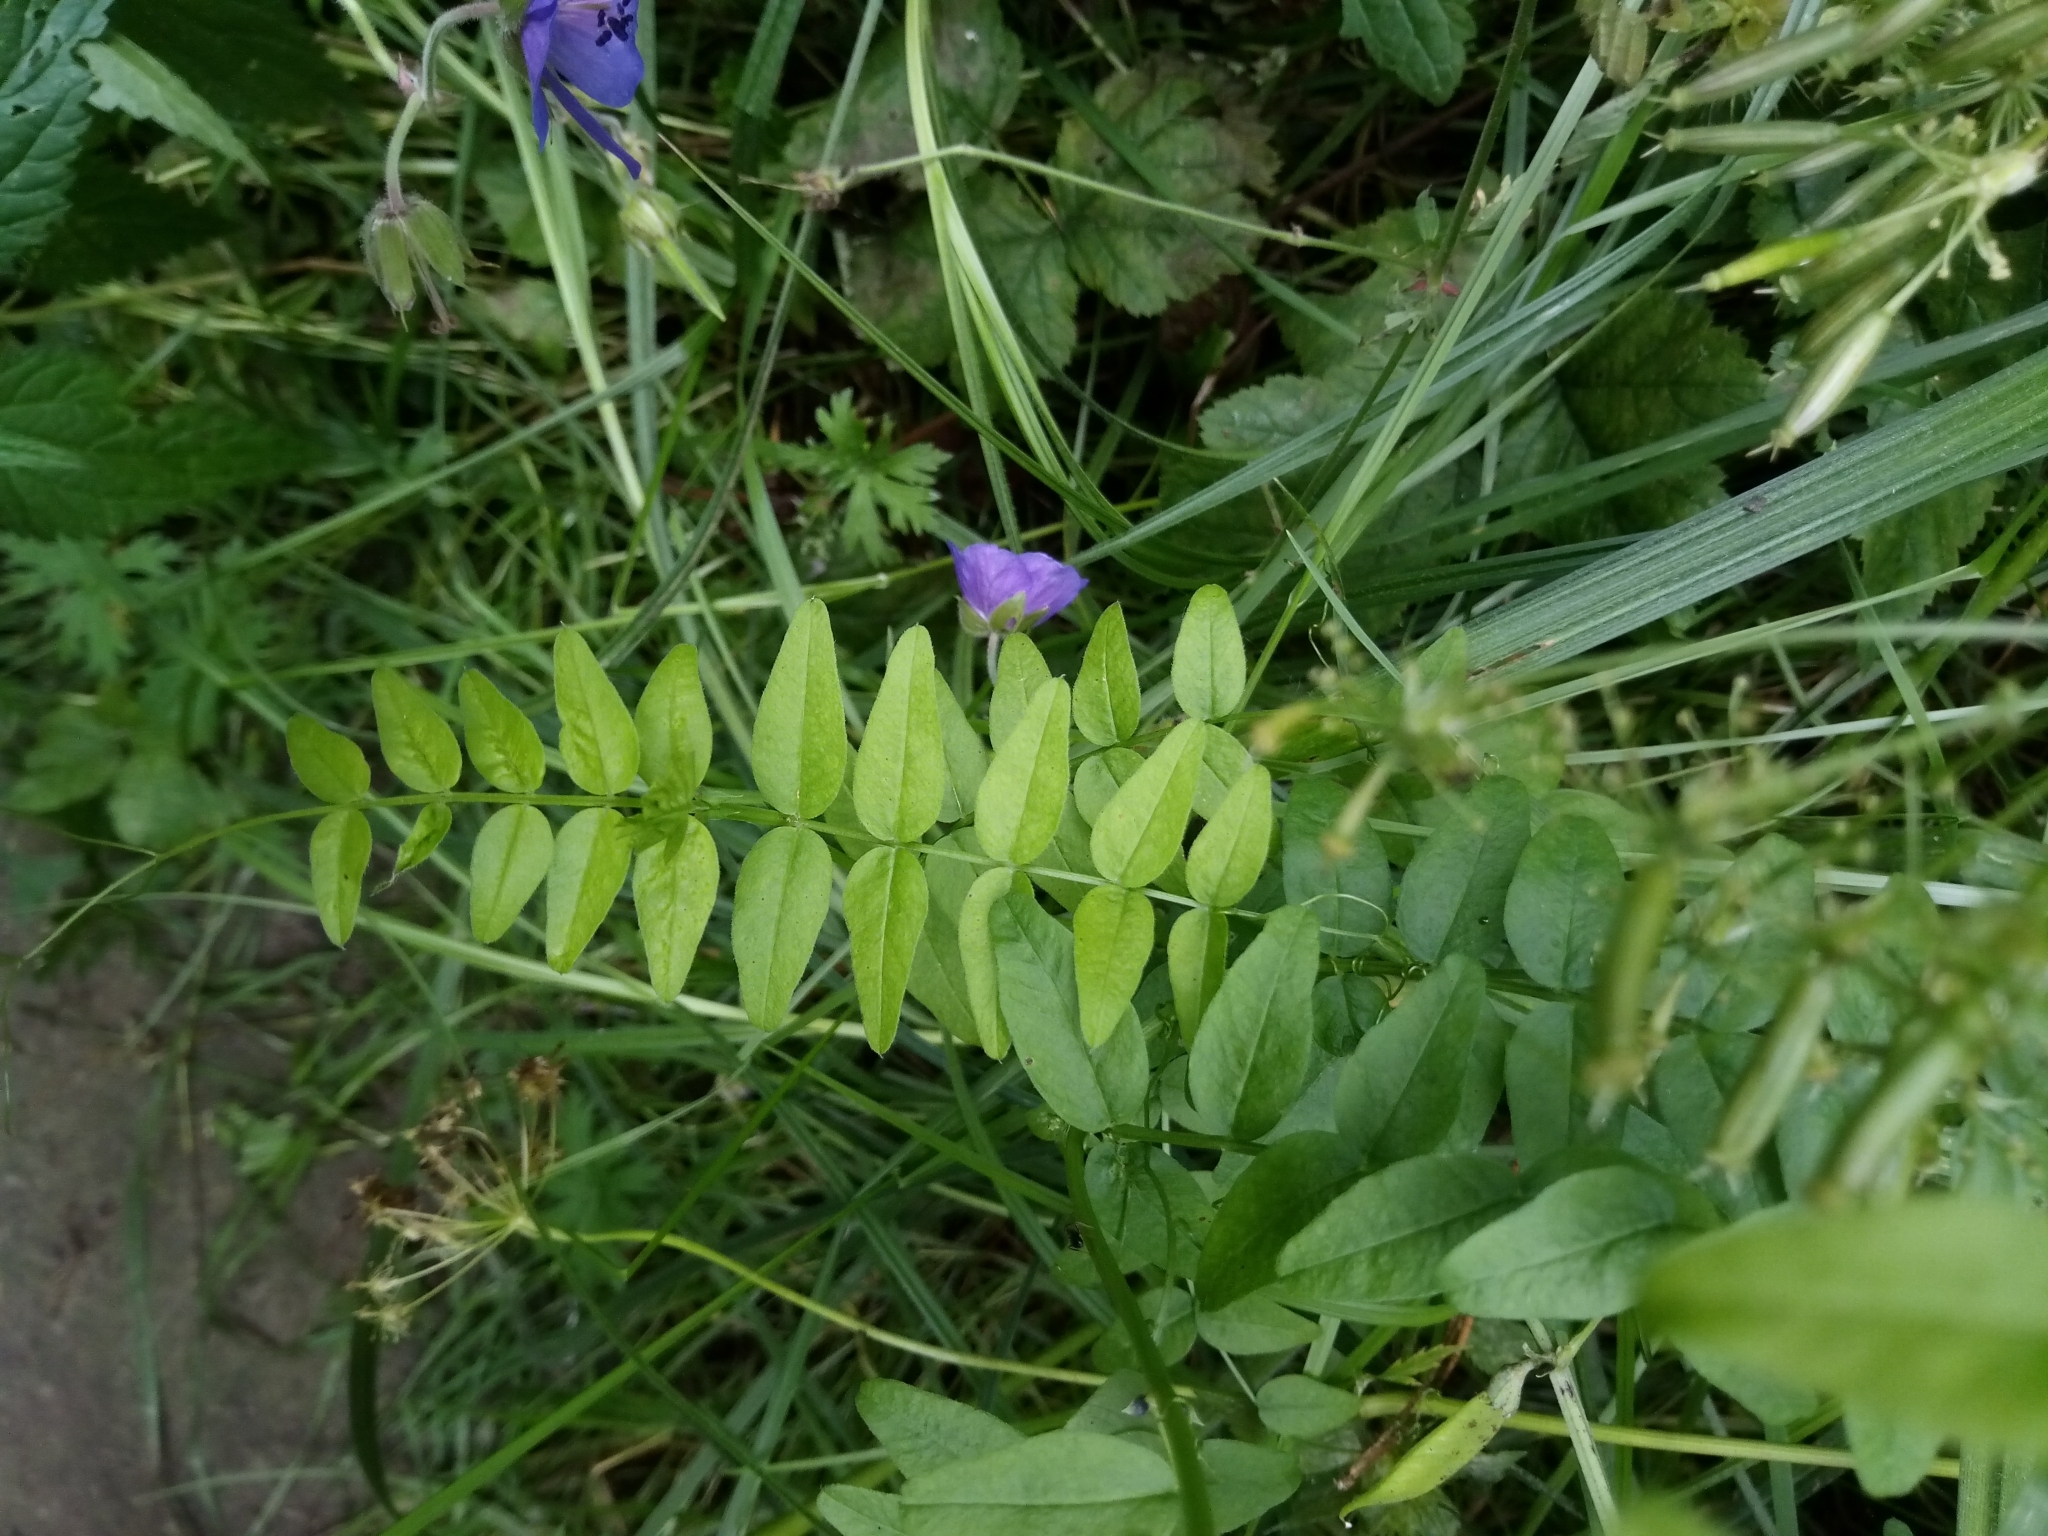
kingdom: Plantae
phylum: Tracheophyta
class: Magnoliopsida
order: Fabales
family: Fabaceae
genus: Vicia
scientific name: Vicia sepium
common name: Bush vetch
